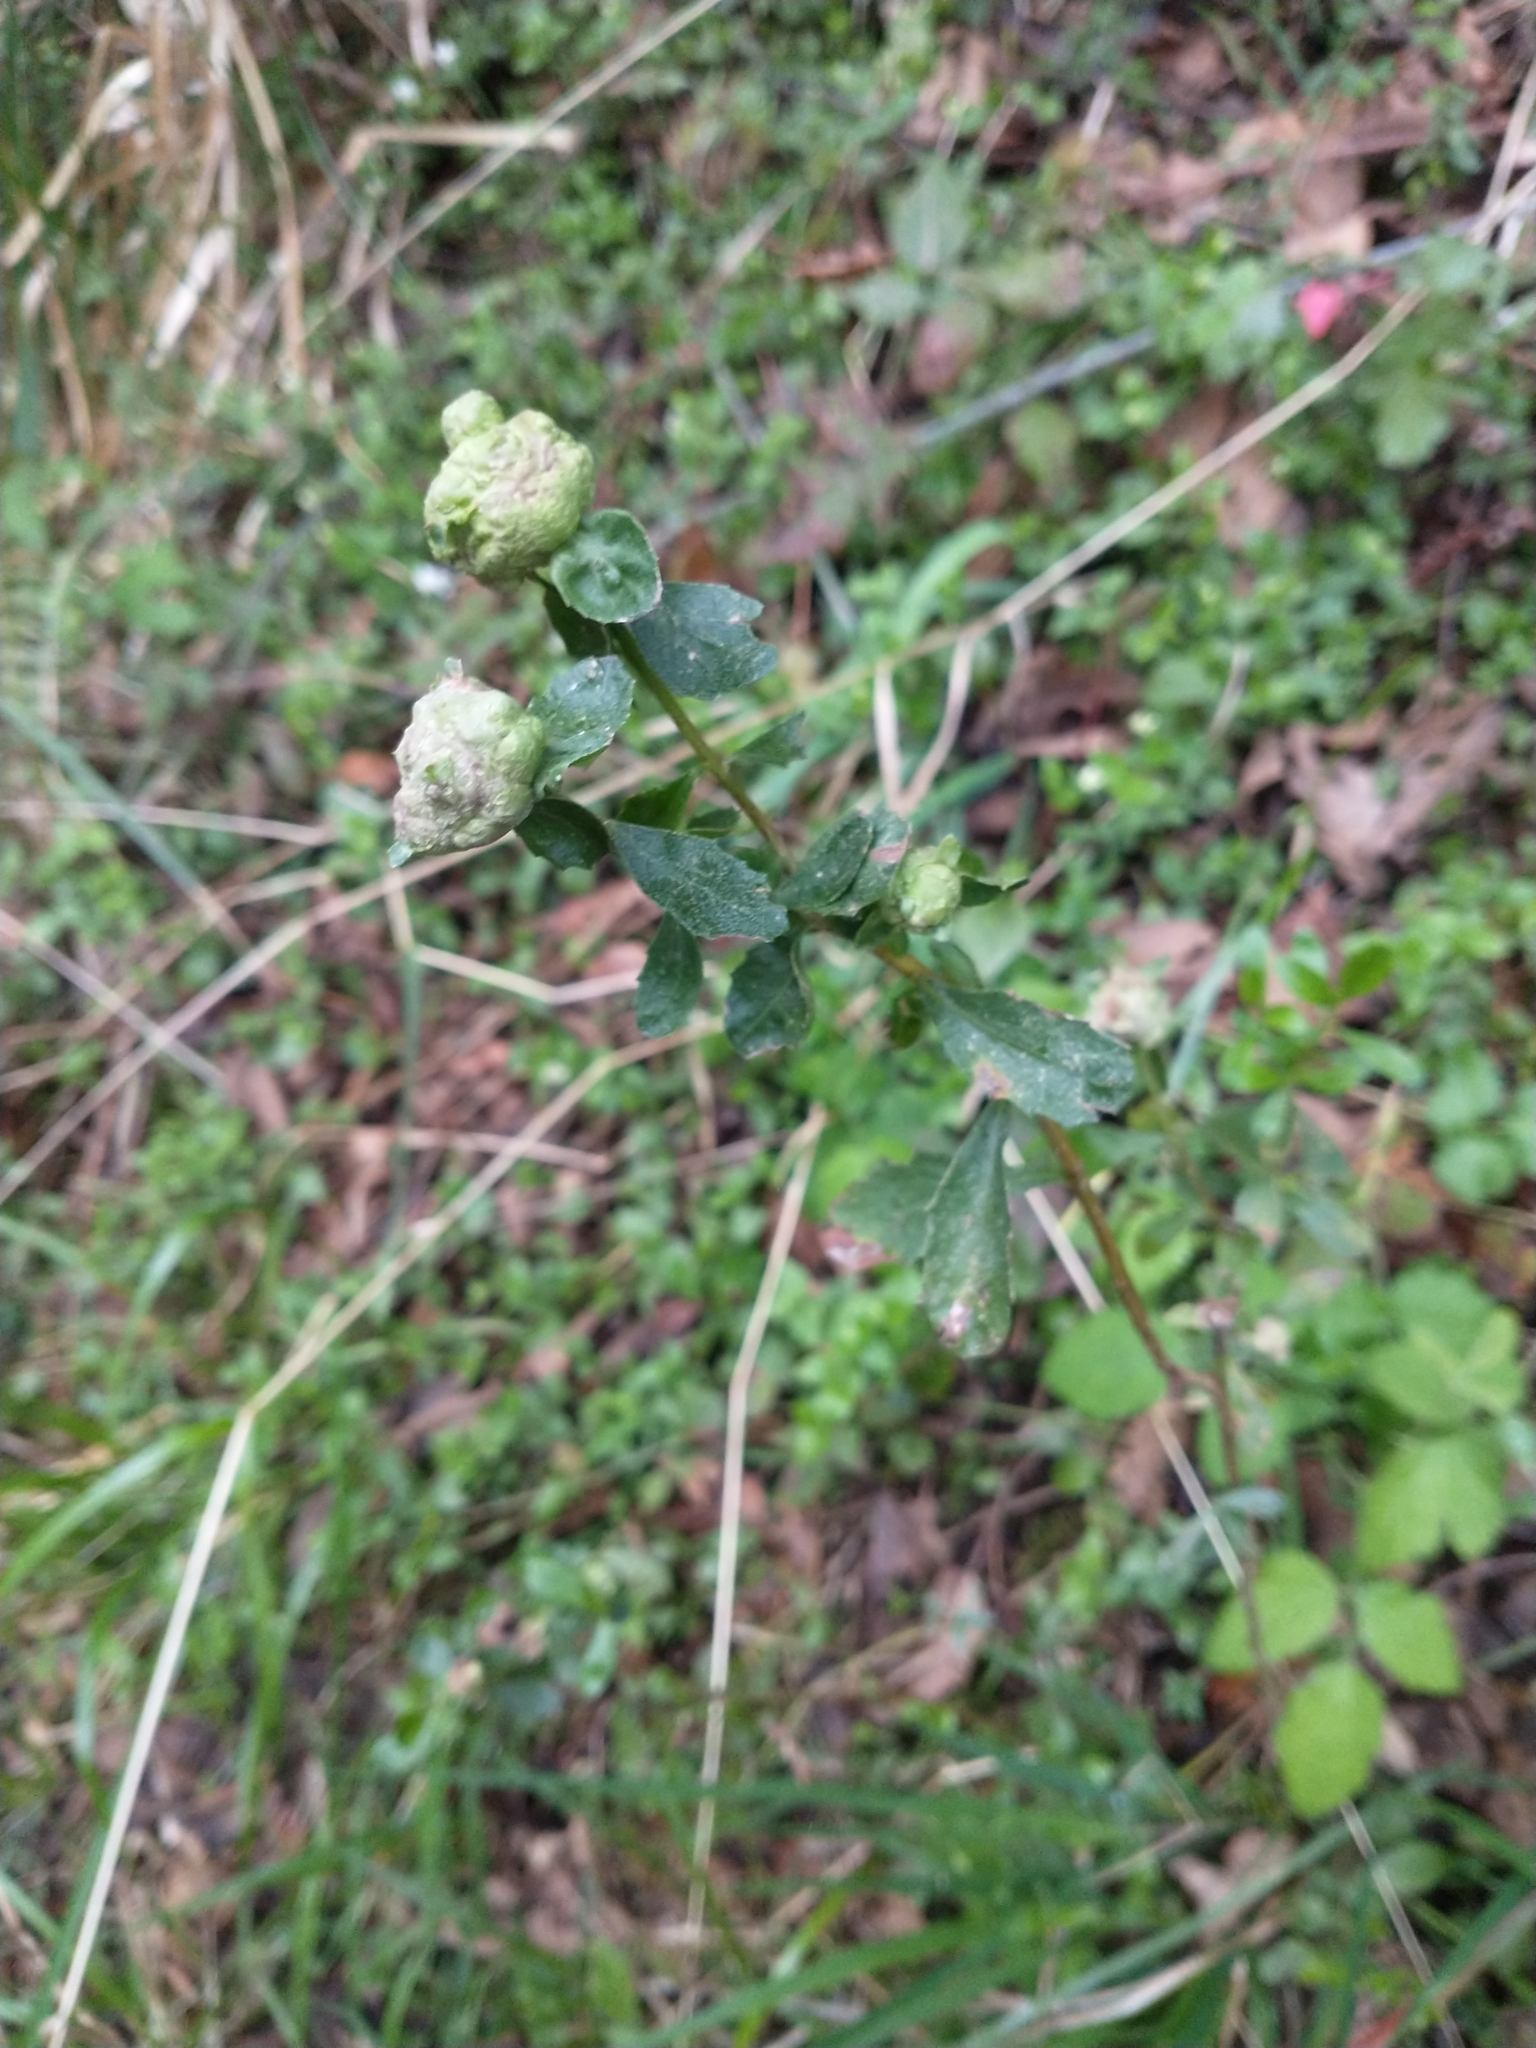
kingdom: Animalia
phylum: Arthropoda
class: Insecta
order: Diptera
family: Cecidomyiidae
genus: Rhopalomyia
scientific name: Rhopalomyia californica
